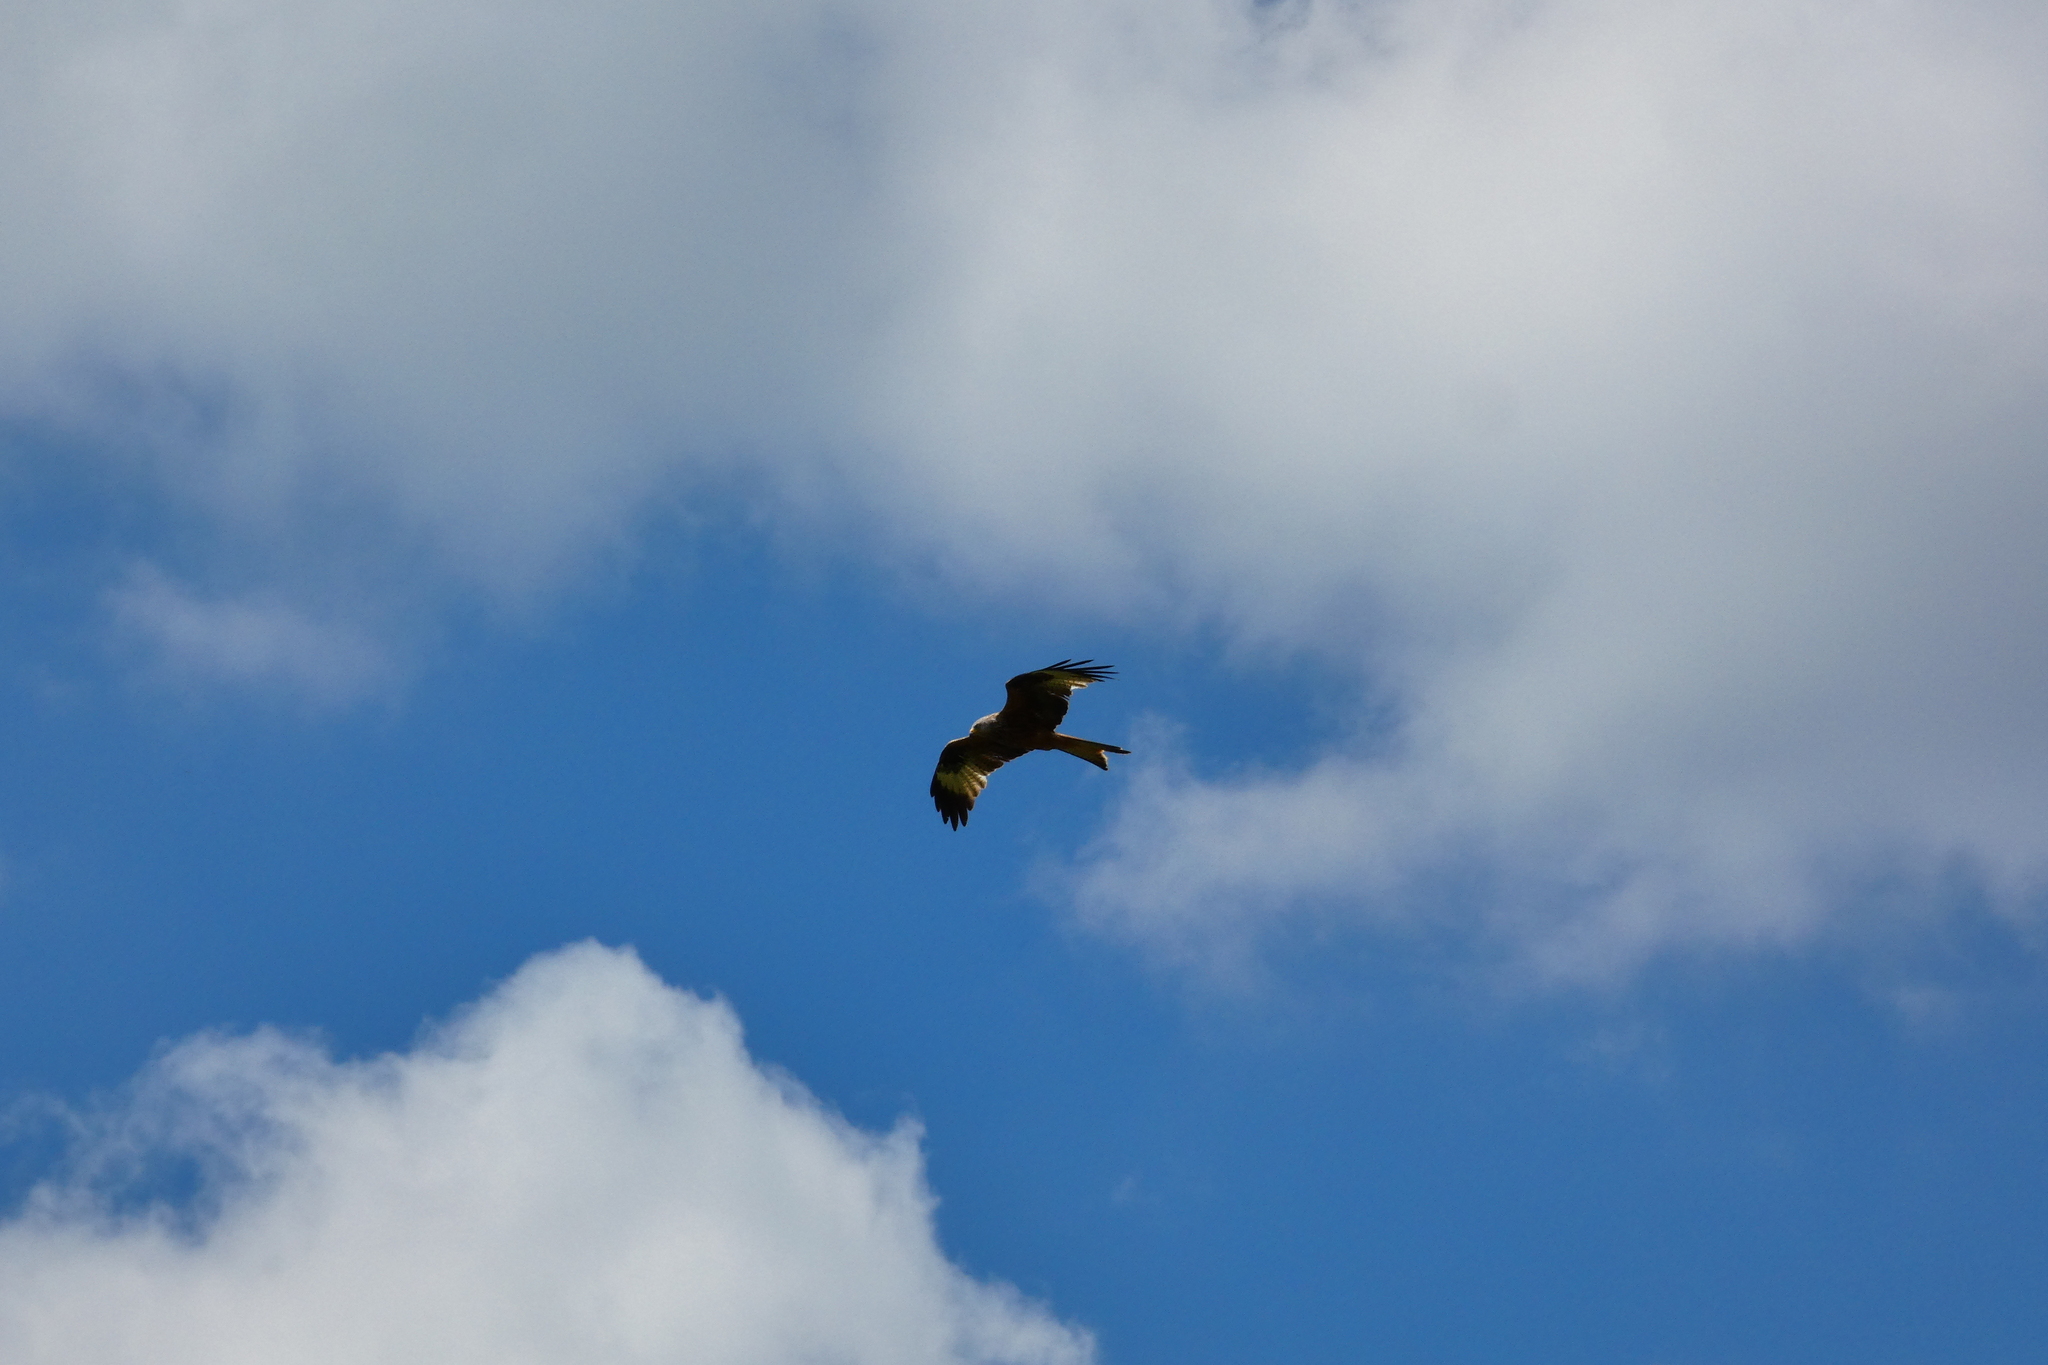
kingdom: Animalia
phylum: Chordata
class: Aves
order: Accipitriformes
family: Accipitridae
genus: Milvus
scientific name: Milvus milvus
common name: Red kite
